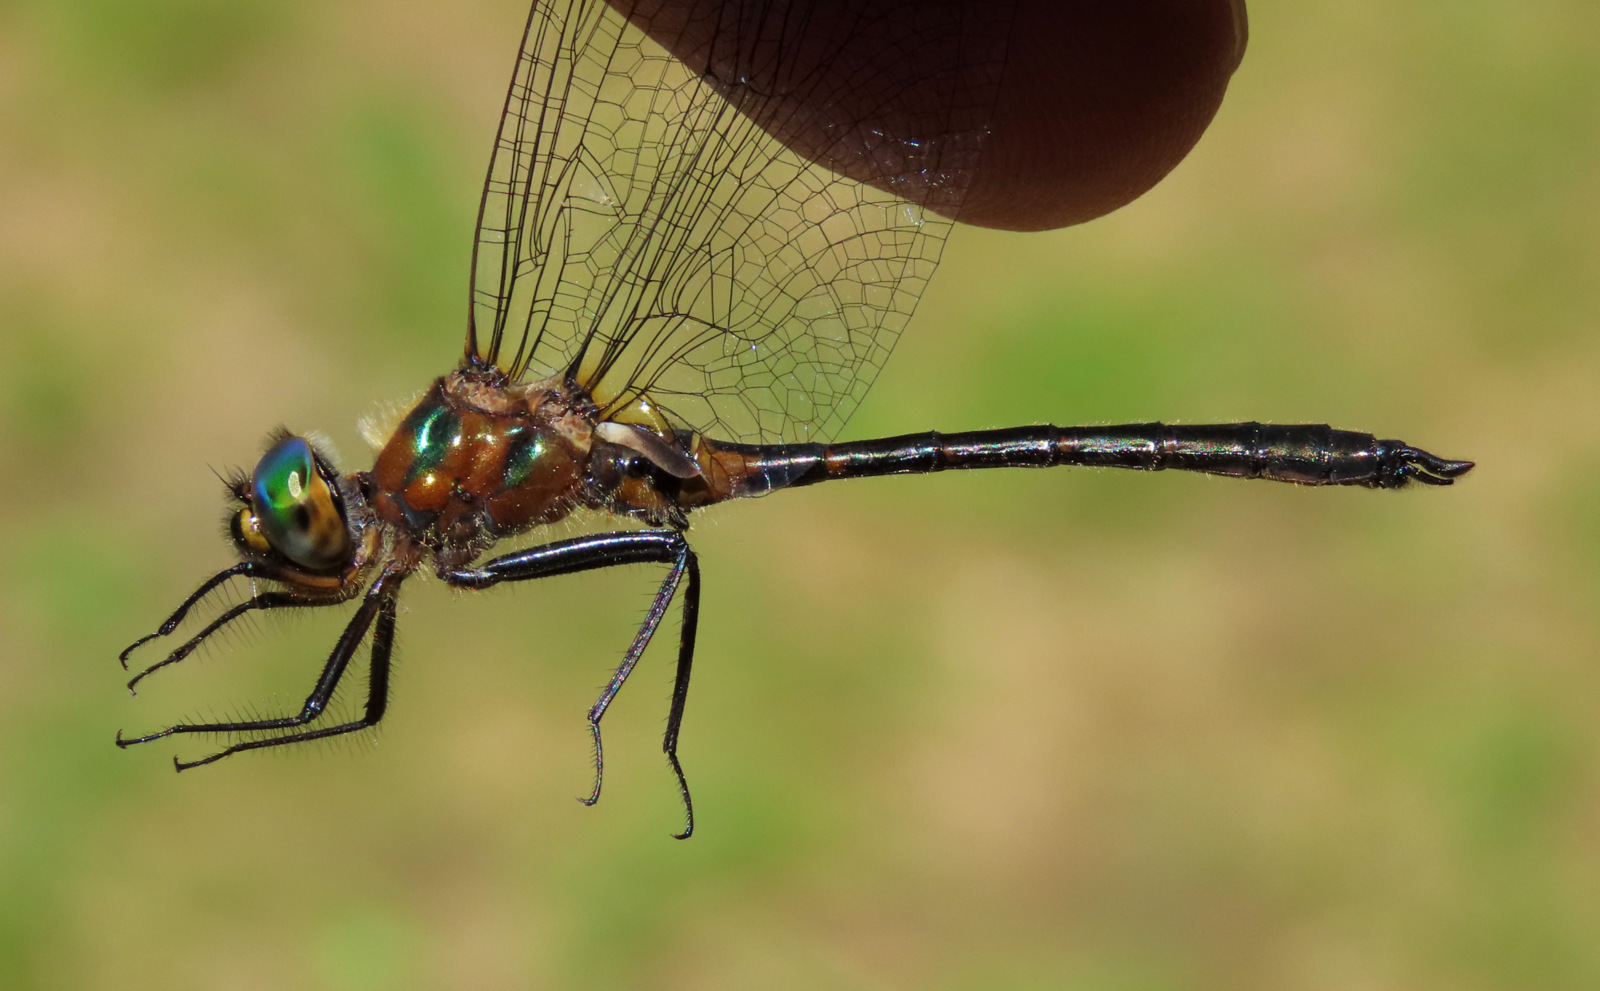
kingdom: Animalia
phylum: Arthropoda
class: Insecta
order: Odonata
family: Corduliidae
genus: Dorocordulia
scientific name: Dorocordulia lepida
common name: Petite emerald
